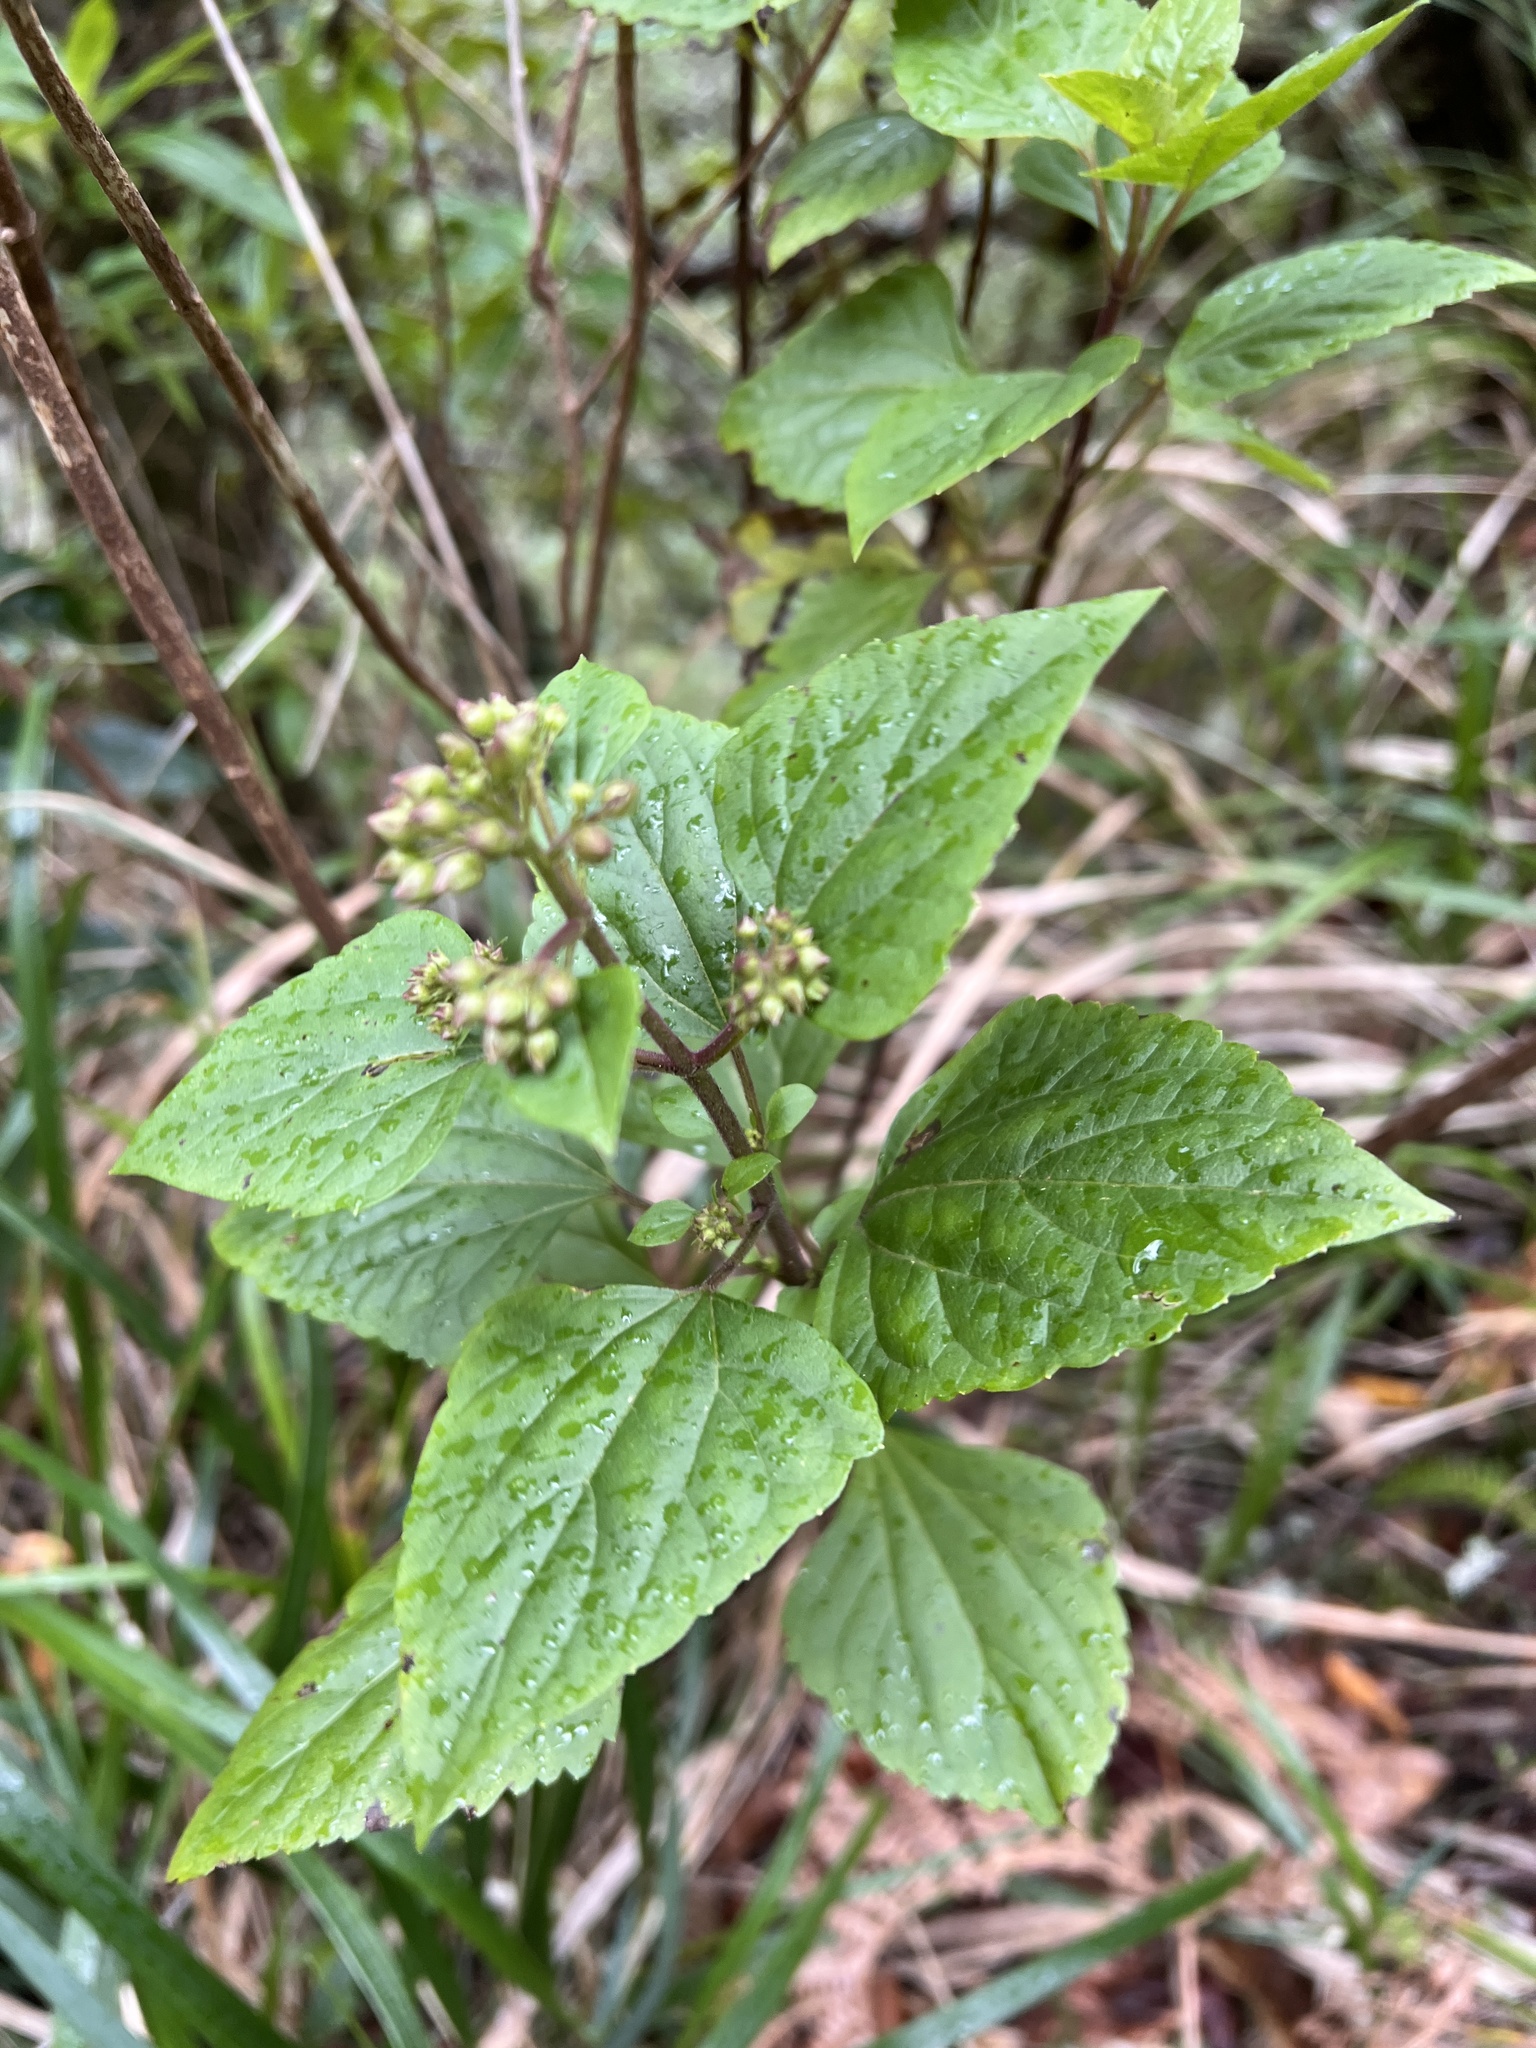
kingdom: Plantae
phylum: Tracheophyta
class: Magnoliopsida
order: Asterales
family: Asteraceae
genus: Ageratina
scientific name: Ageratina adenophora
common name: Sticky snakeroot
